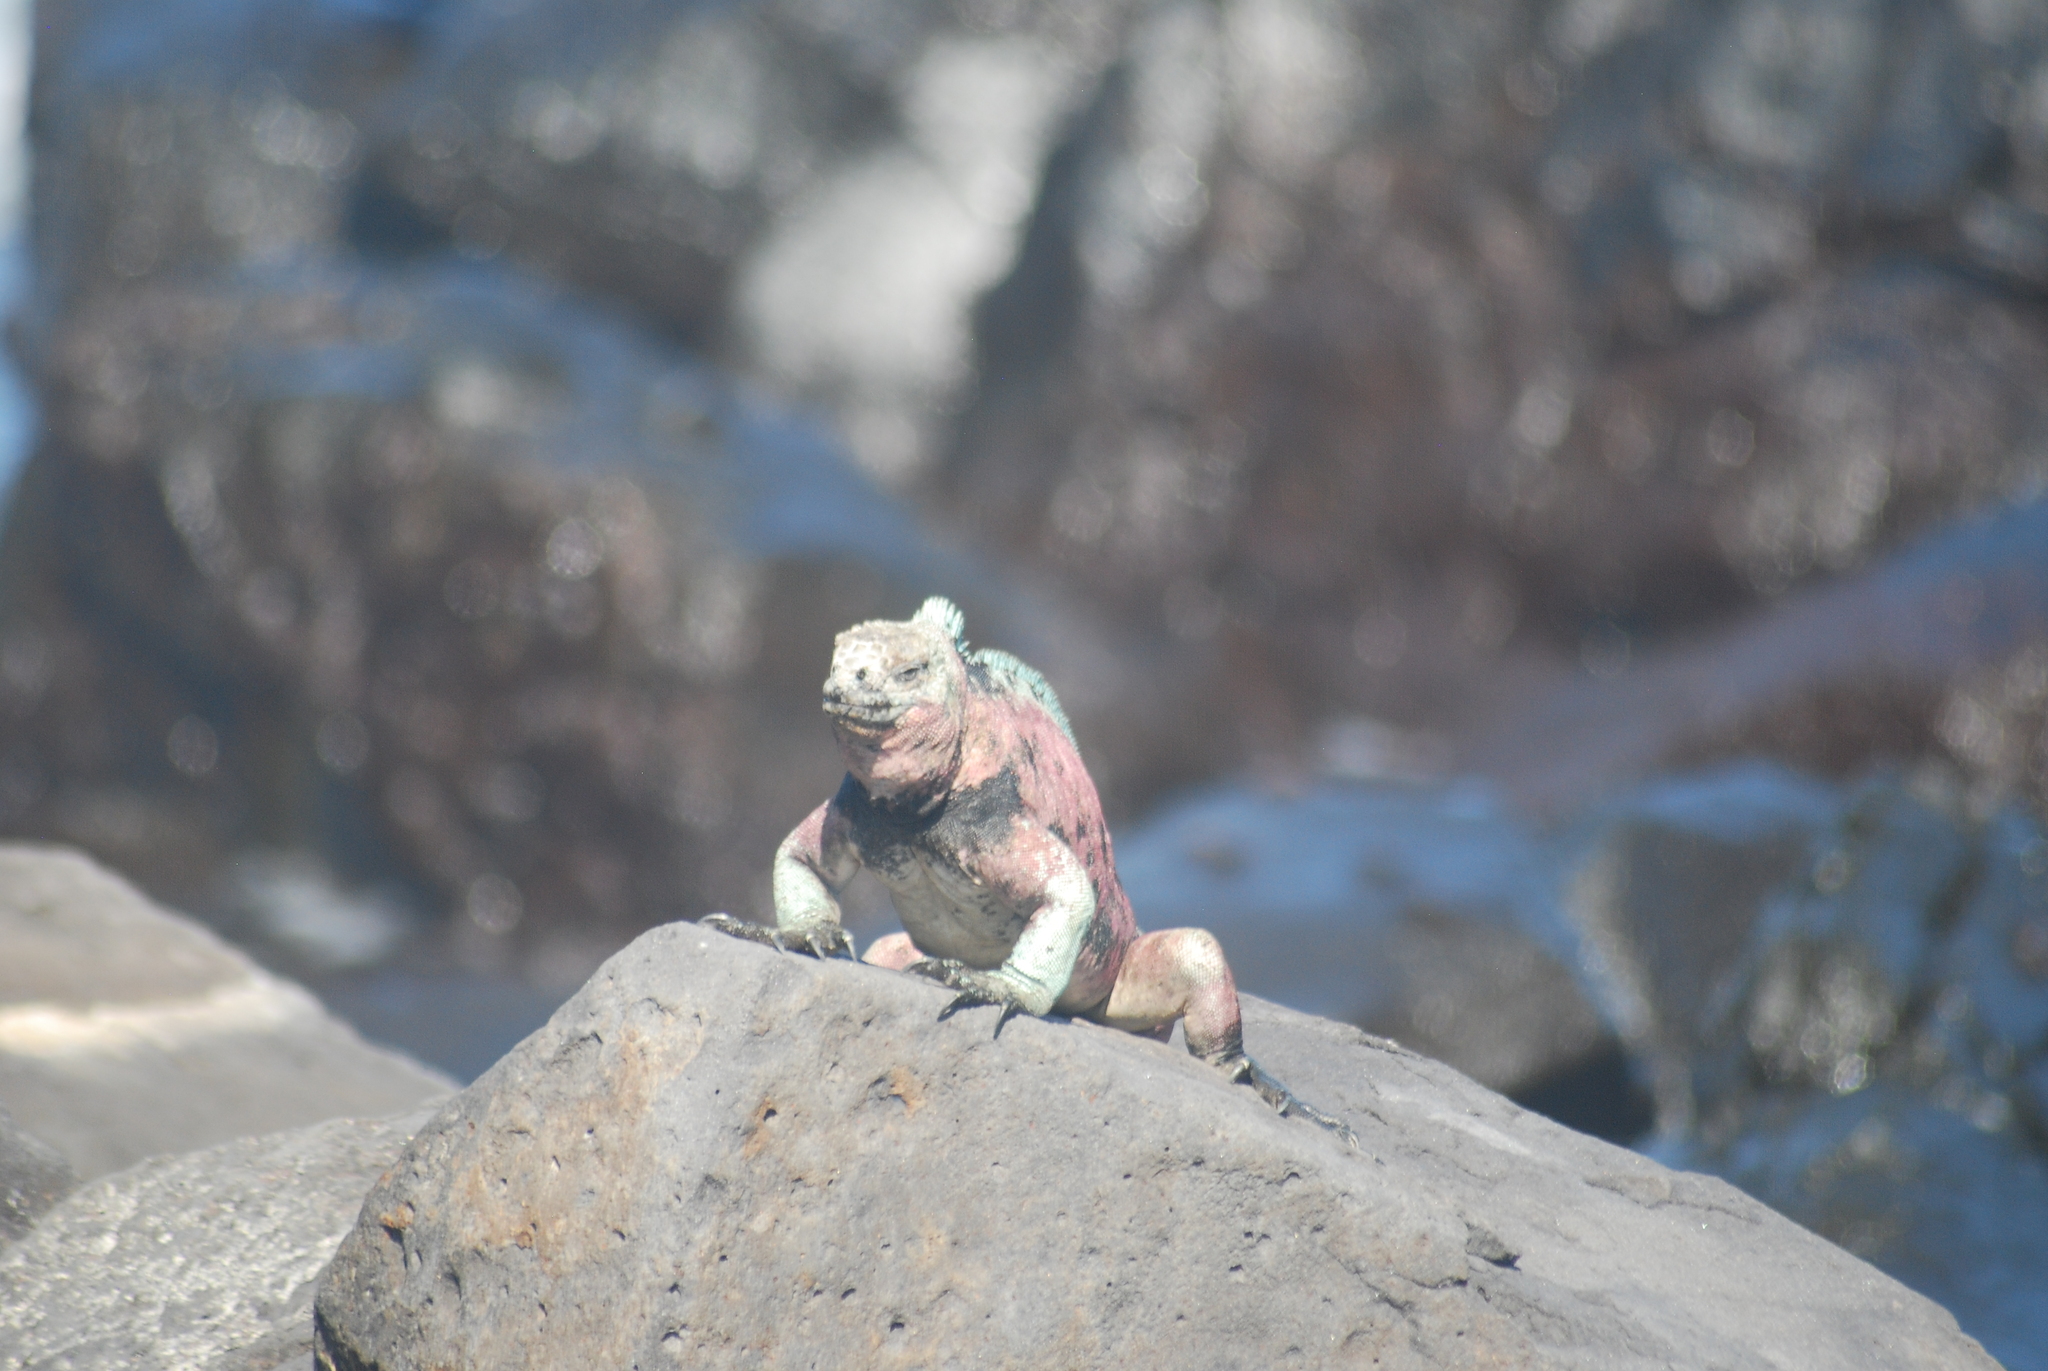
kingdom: Animalia
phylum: Chordata
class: Squamata
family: Iguanidae
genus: Amblyrhynchus
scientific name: Amblyrhynchus cristatus
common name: Marine iguana
